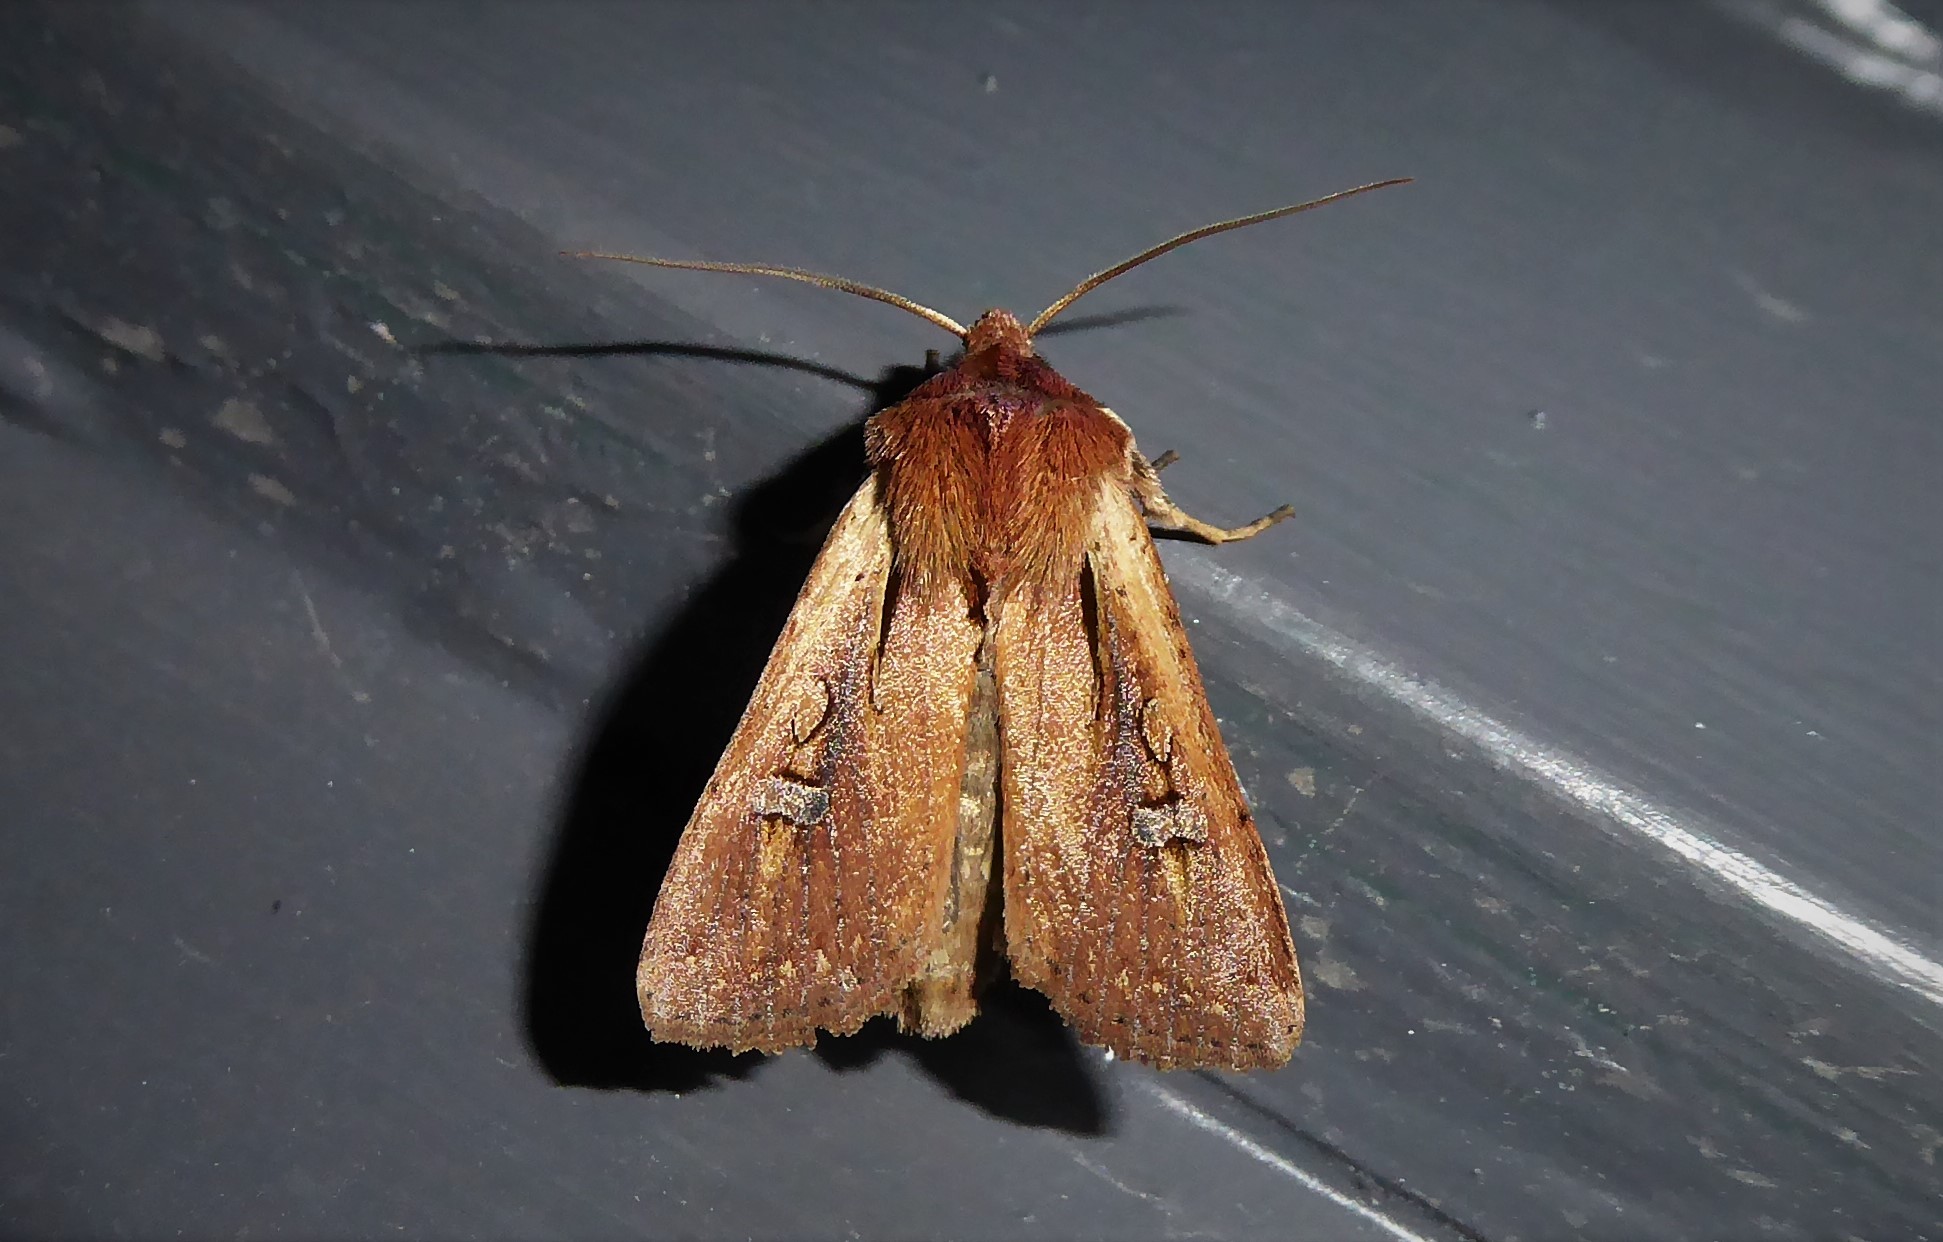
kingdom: Animalia
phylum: Arthropoda
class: Insecta
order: Lepidoptera
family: Noctuidae
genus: Ichneutica
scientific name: Ichneutica atristriga
